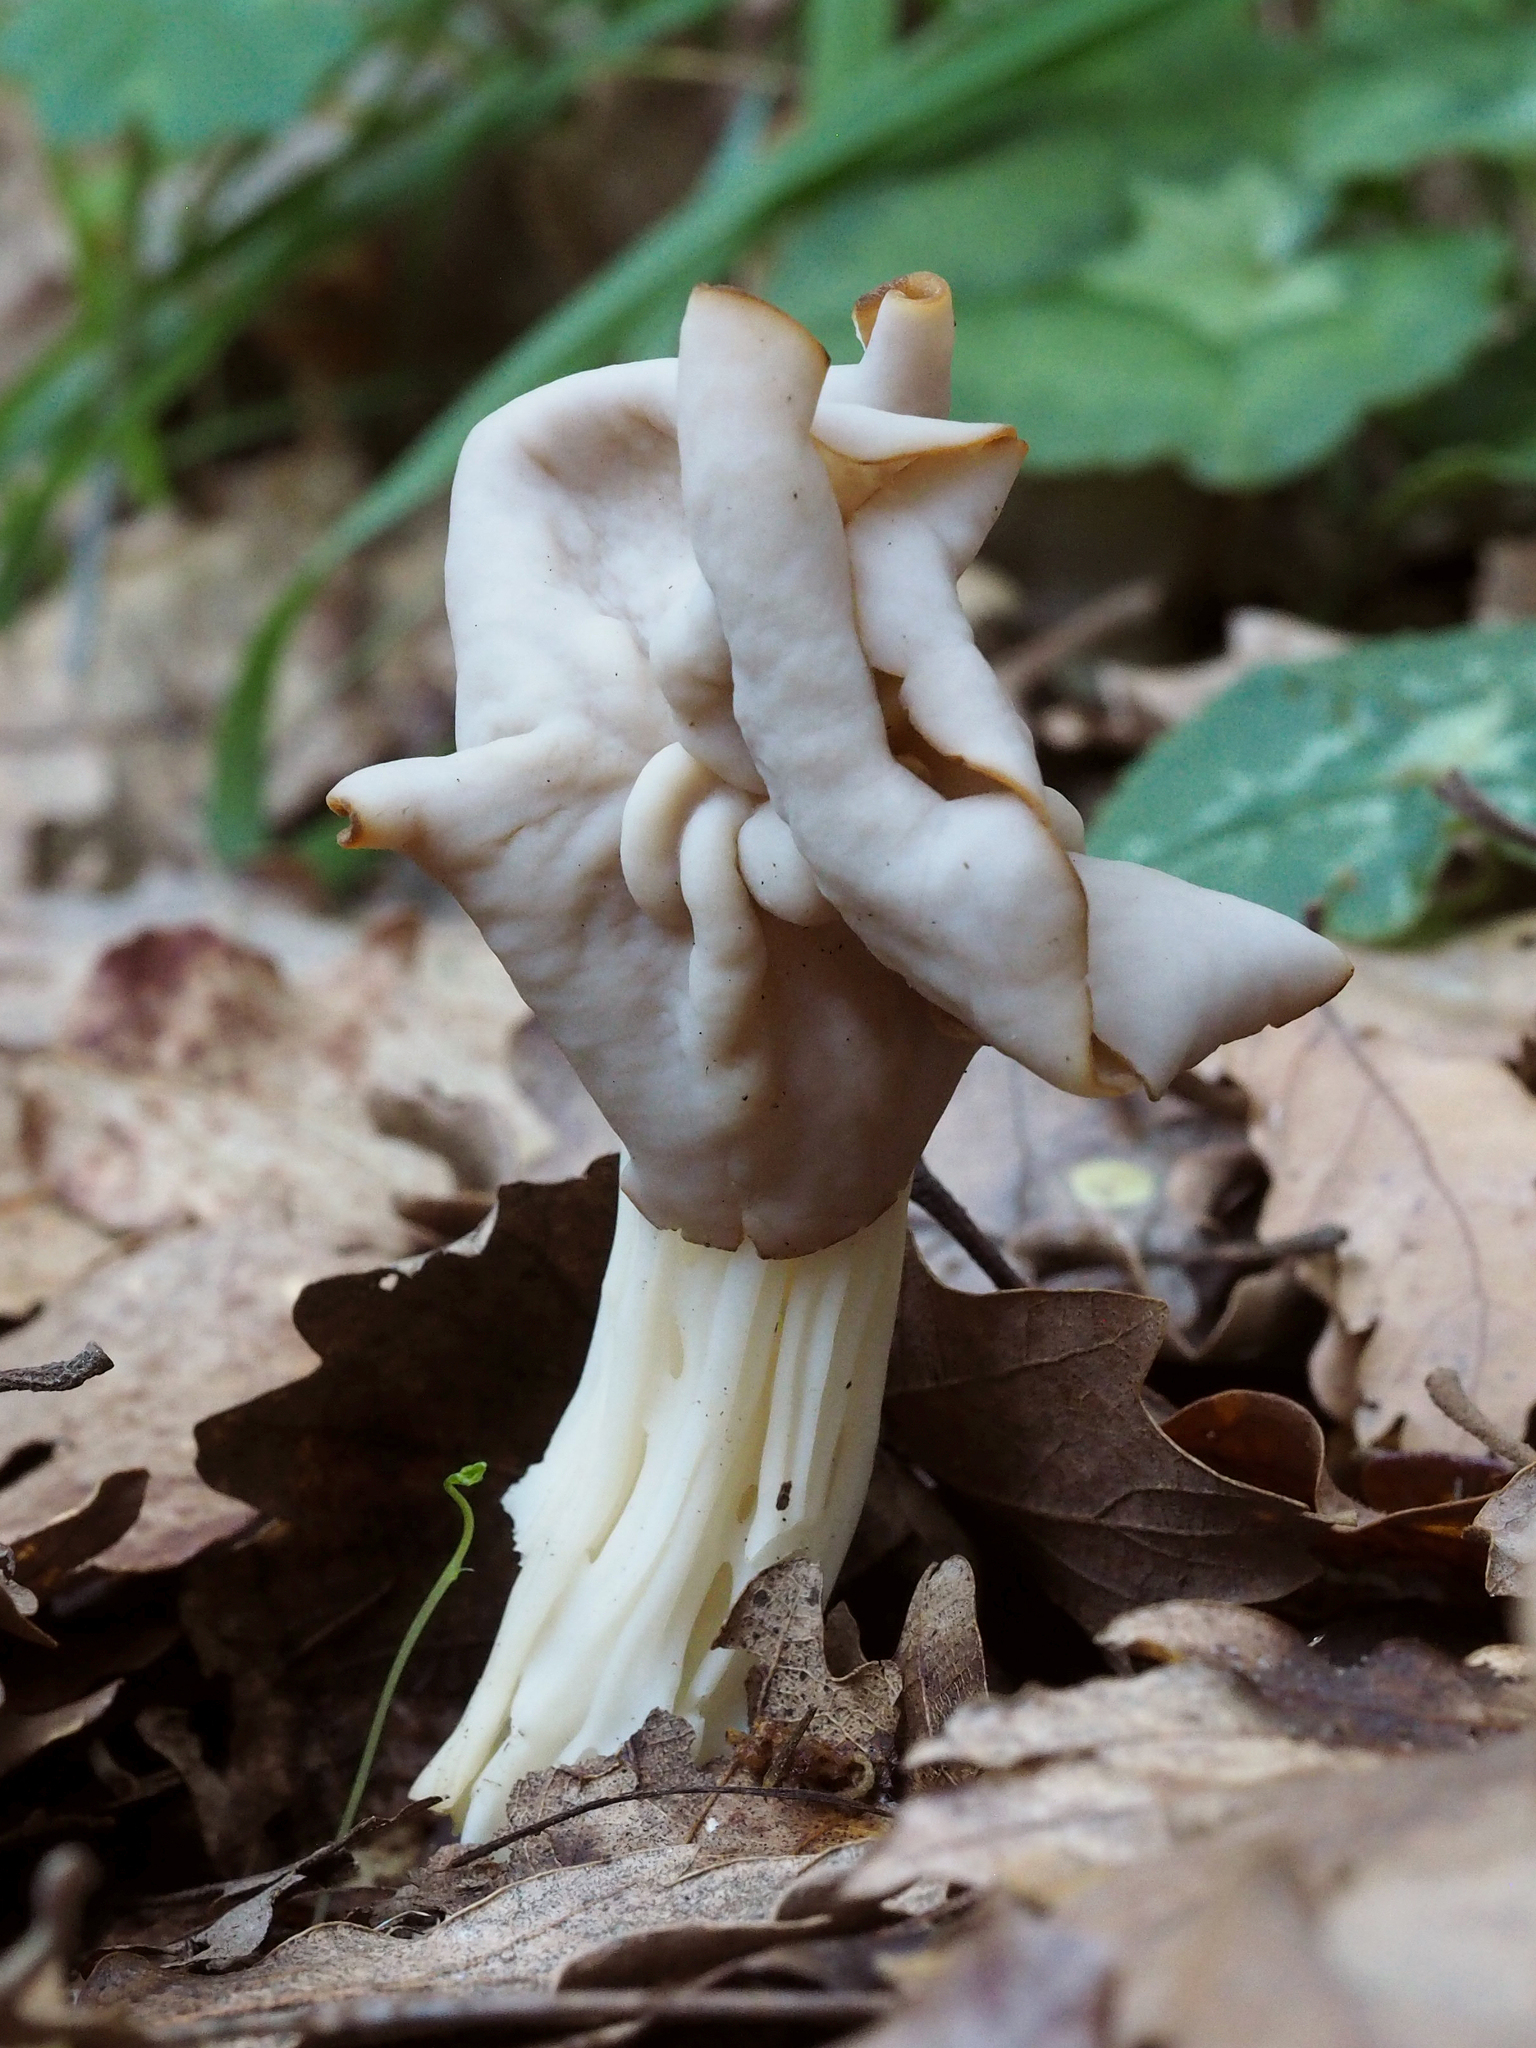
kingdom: Fungi
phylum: Ascomycota
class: Pezizomycetes
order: Pezizales
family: Helvellaceae
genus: Helvella
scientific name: Helvella crispa
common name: White saddle
